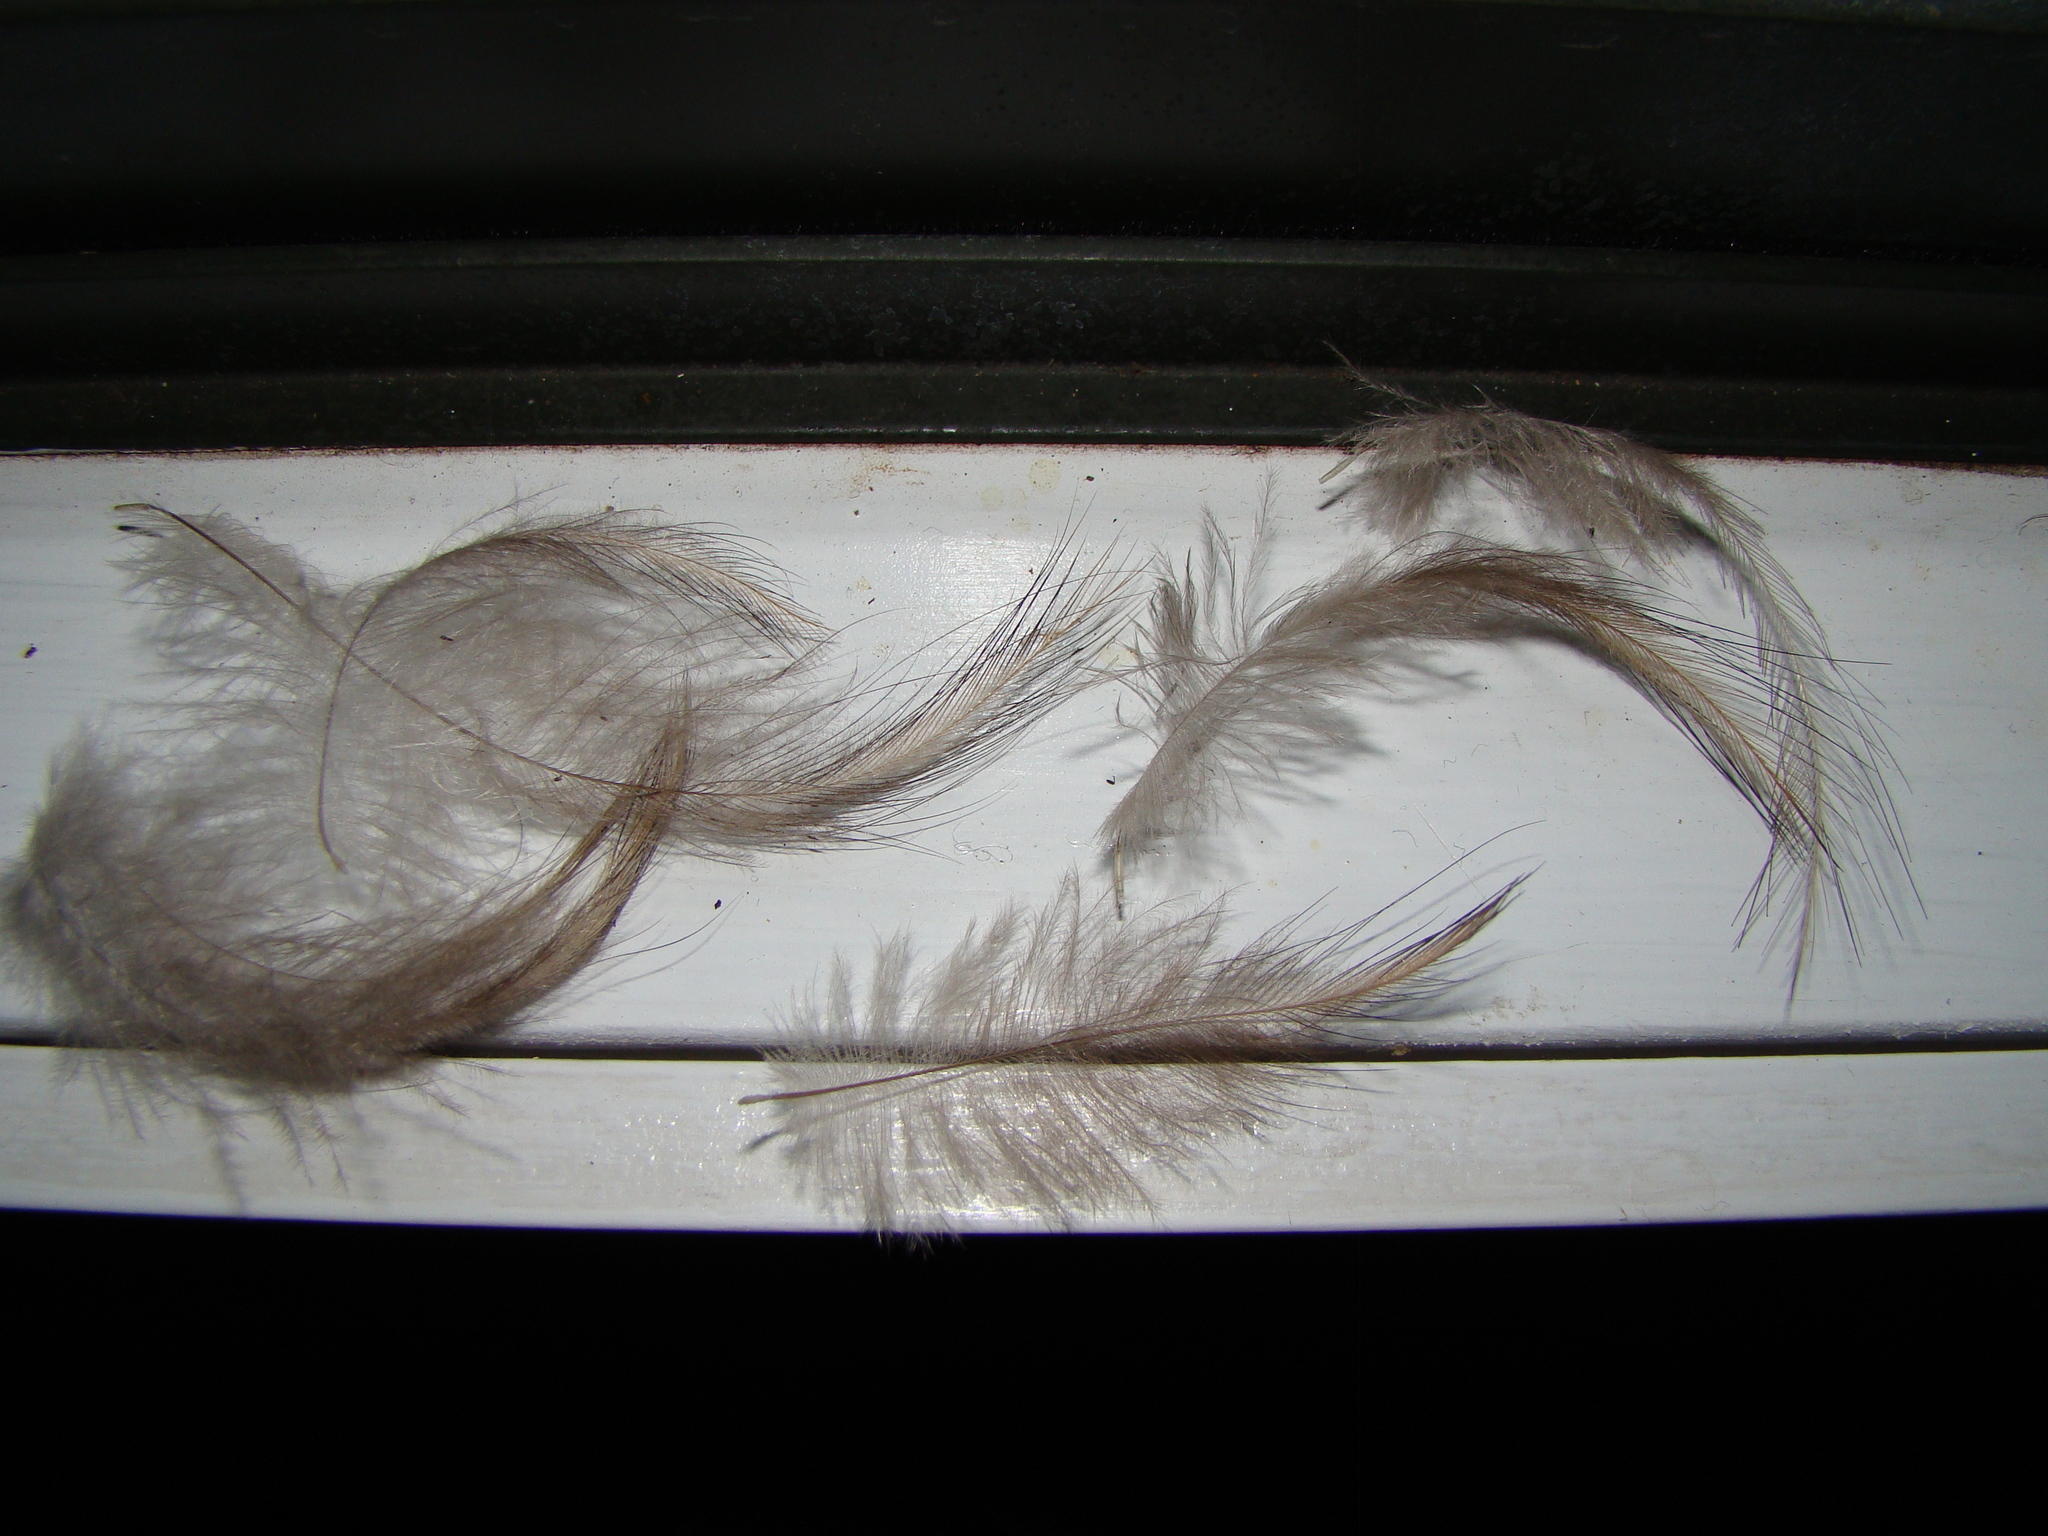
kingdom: Animalia
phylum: Chordata
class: Aves
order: Apterygiformes
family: Apterygidae
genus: Apteryx
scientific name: Apteryx australis
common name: Southern brown kiwi
